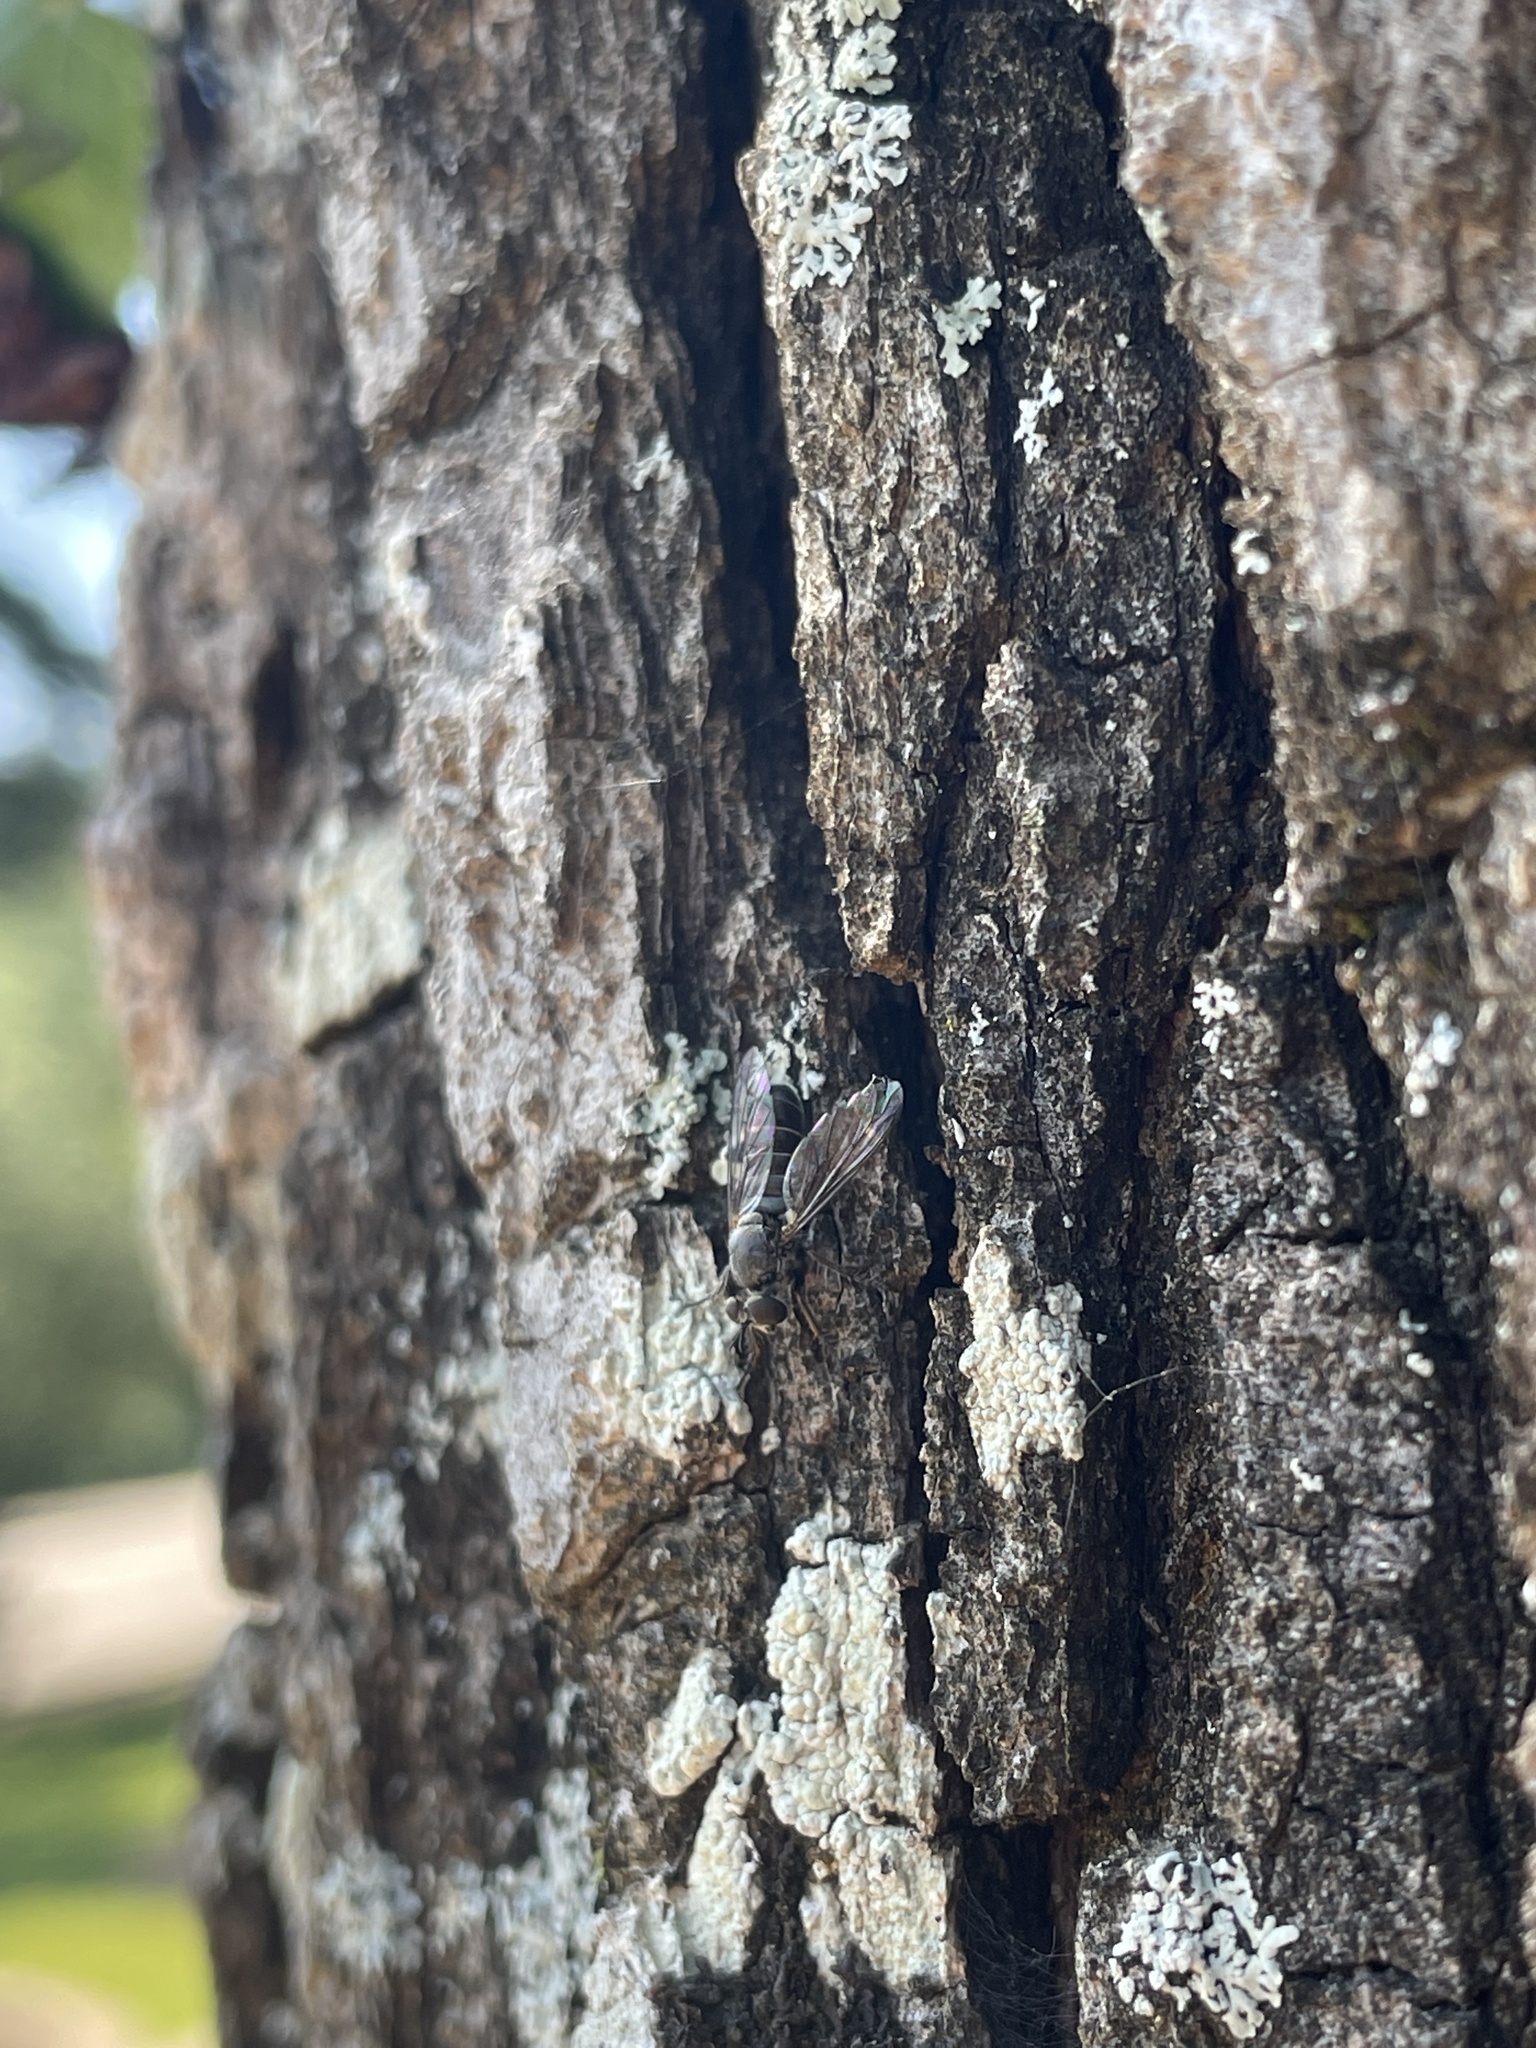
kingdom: Animalia
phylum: Arthropoda
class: Insecta
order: Diptera
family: Asilidae
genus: Atomosia
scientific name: Atomosia puella
